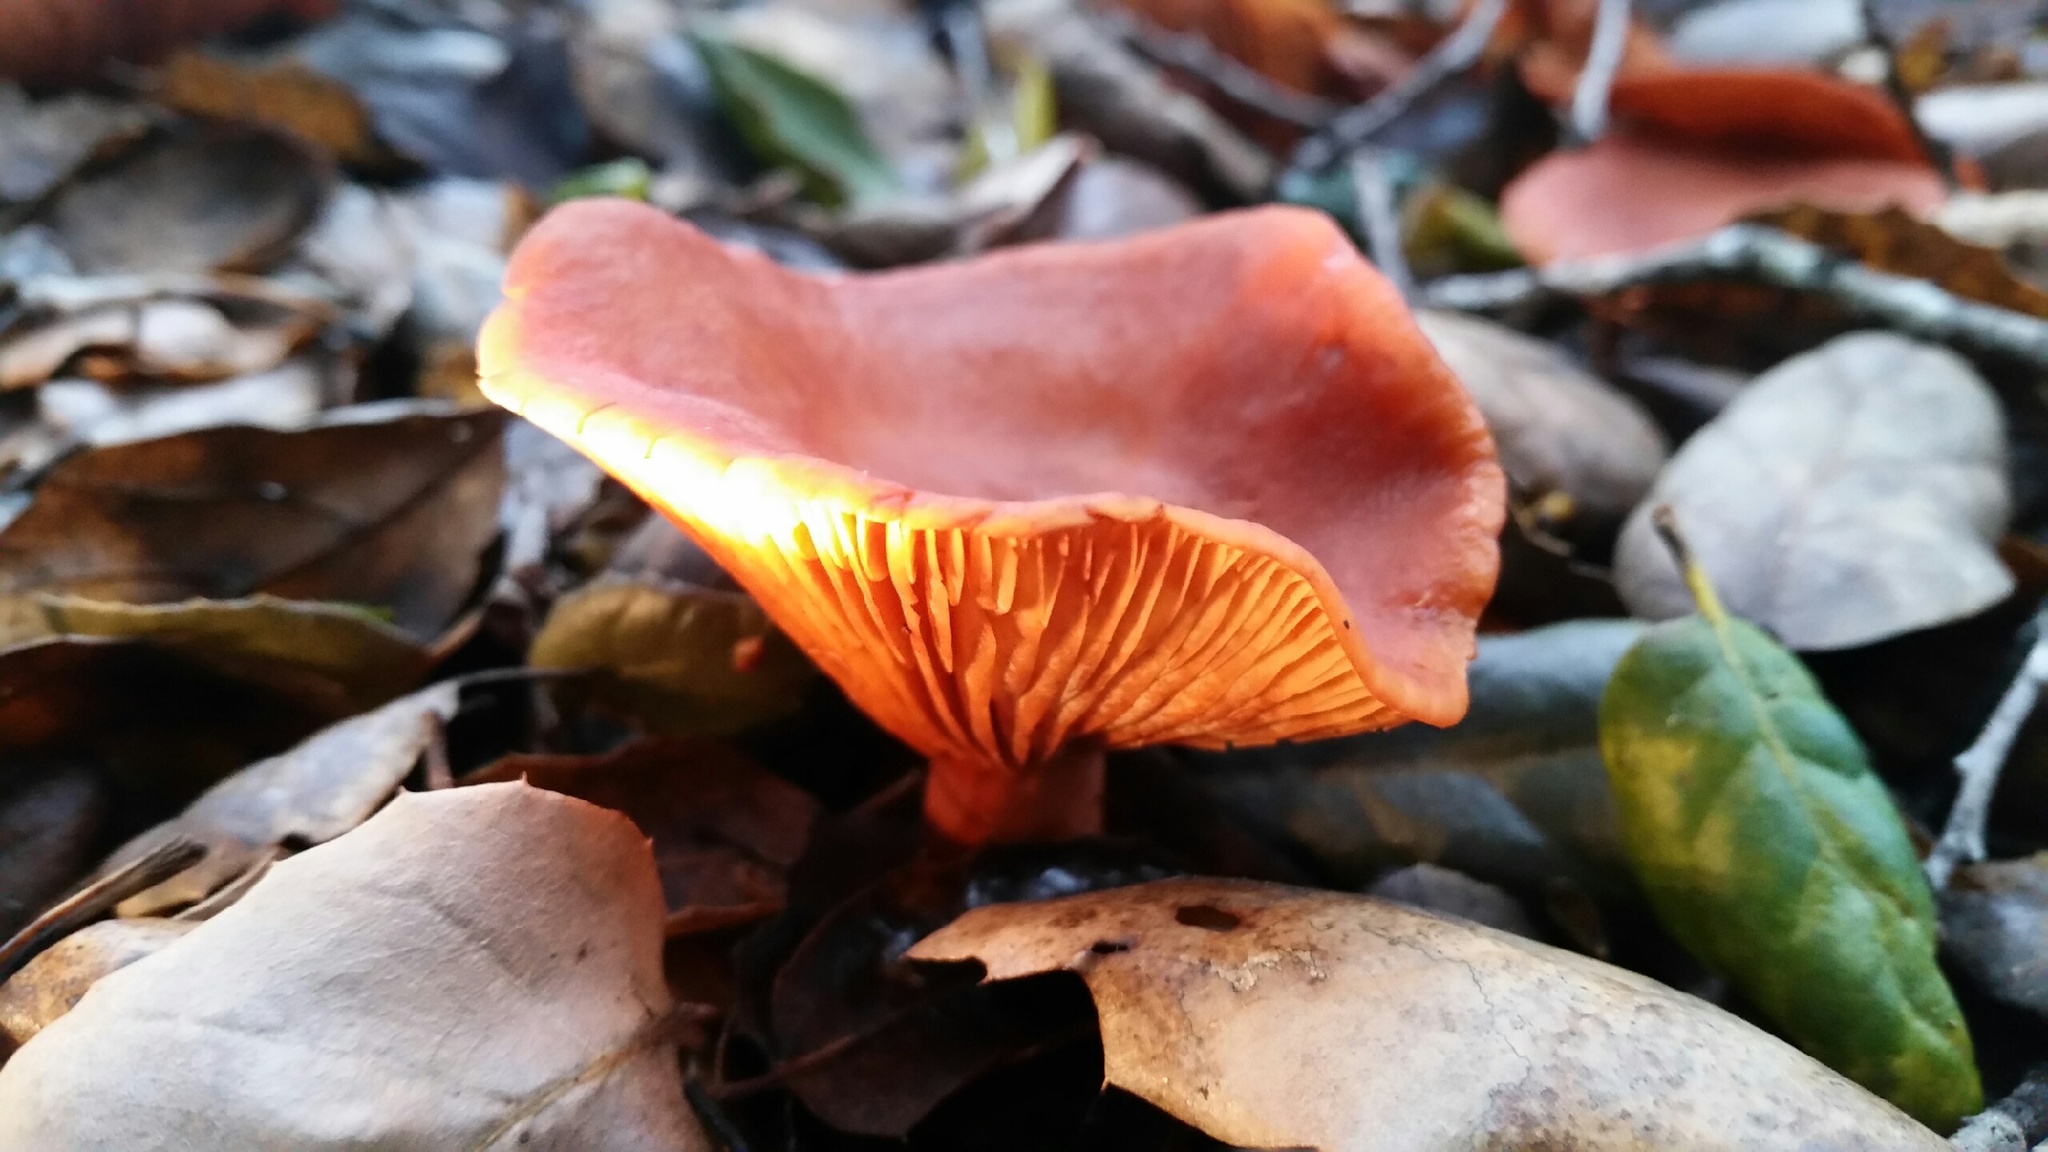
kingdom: Fungi
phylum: Basidiomycota
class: Agaricomycetes
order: Russulales
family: Russulaceae
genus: Lactarius
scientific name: Lactarius rubidus
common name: Candy cap
